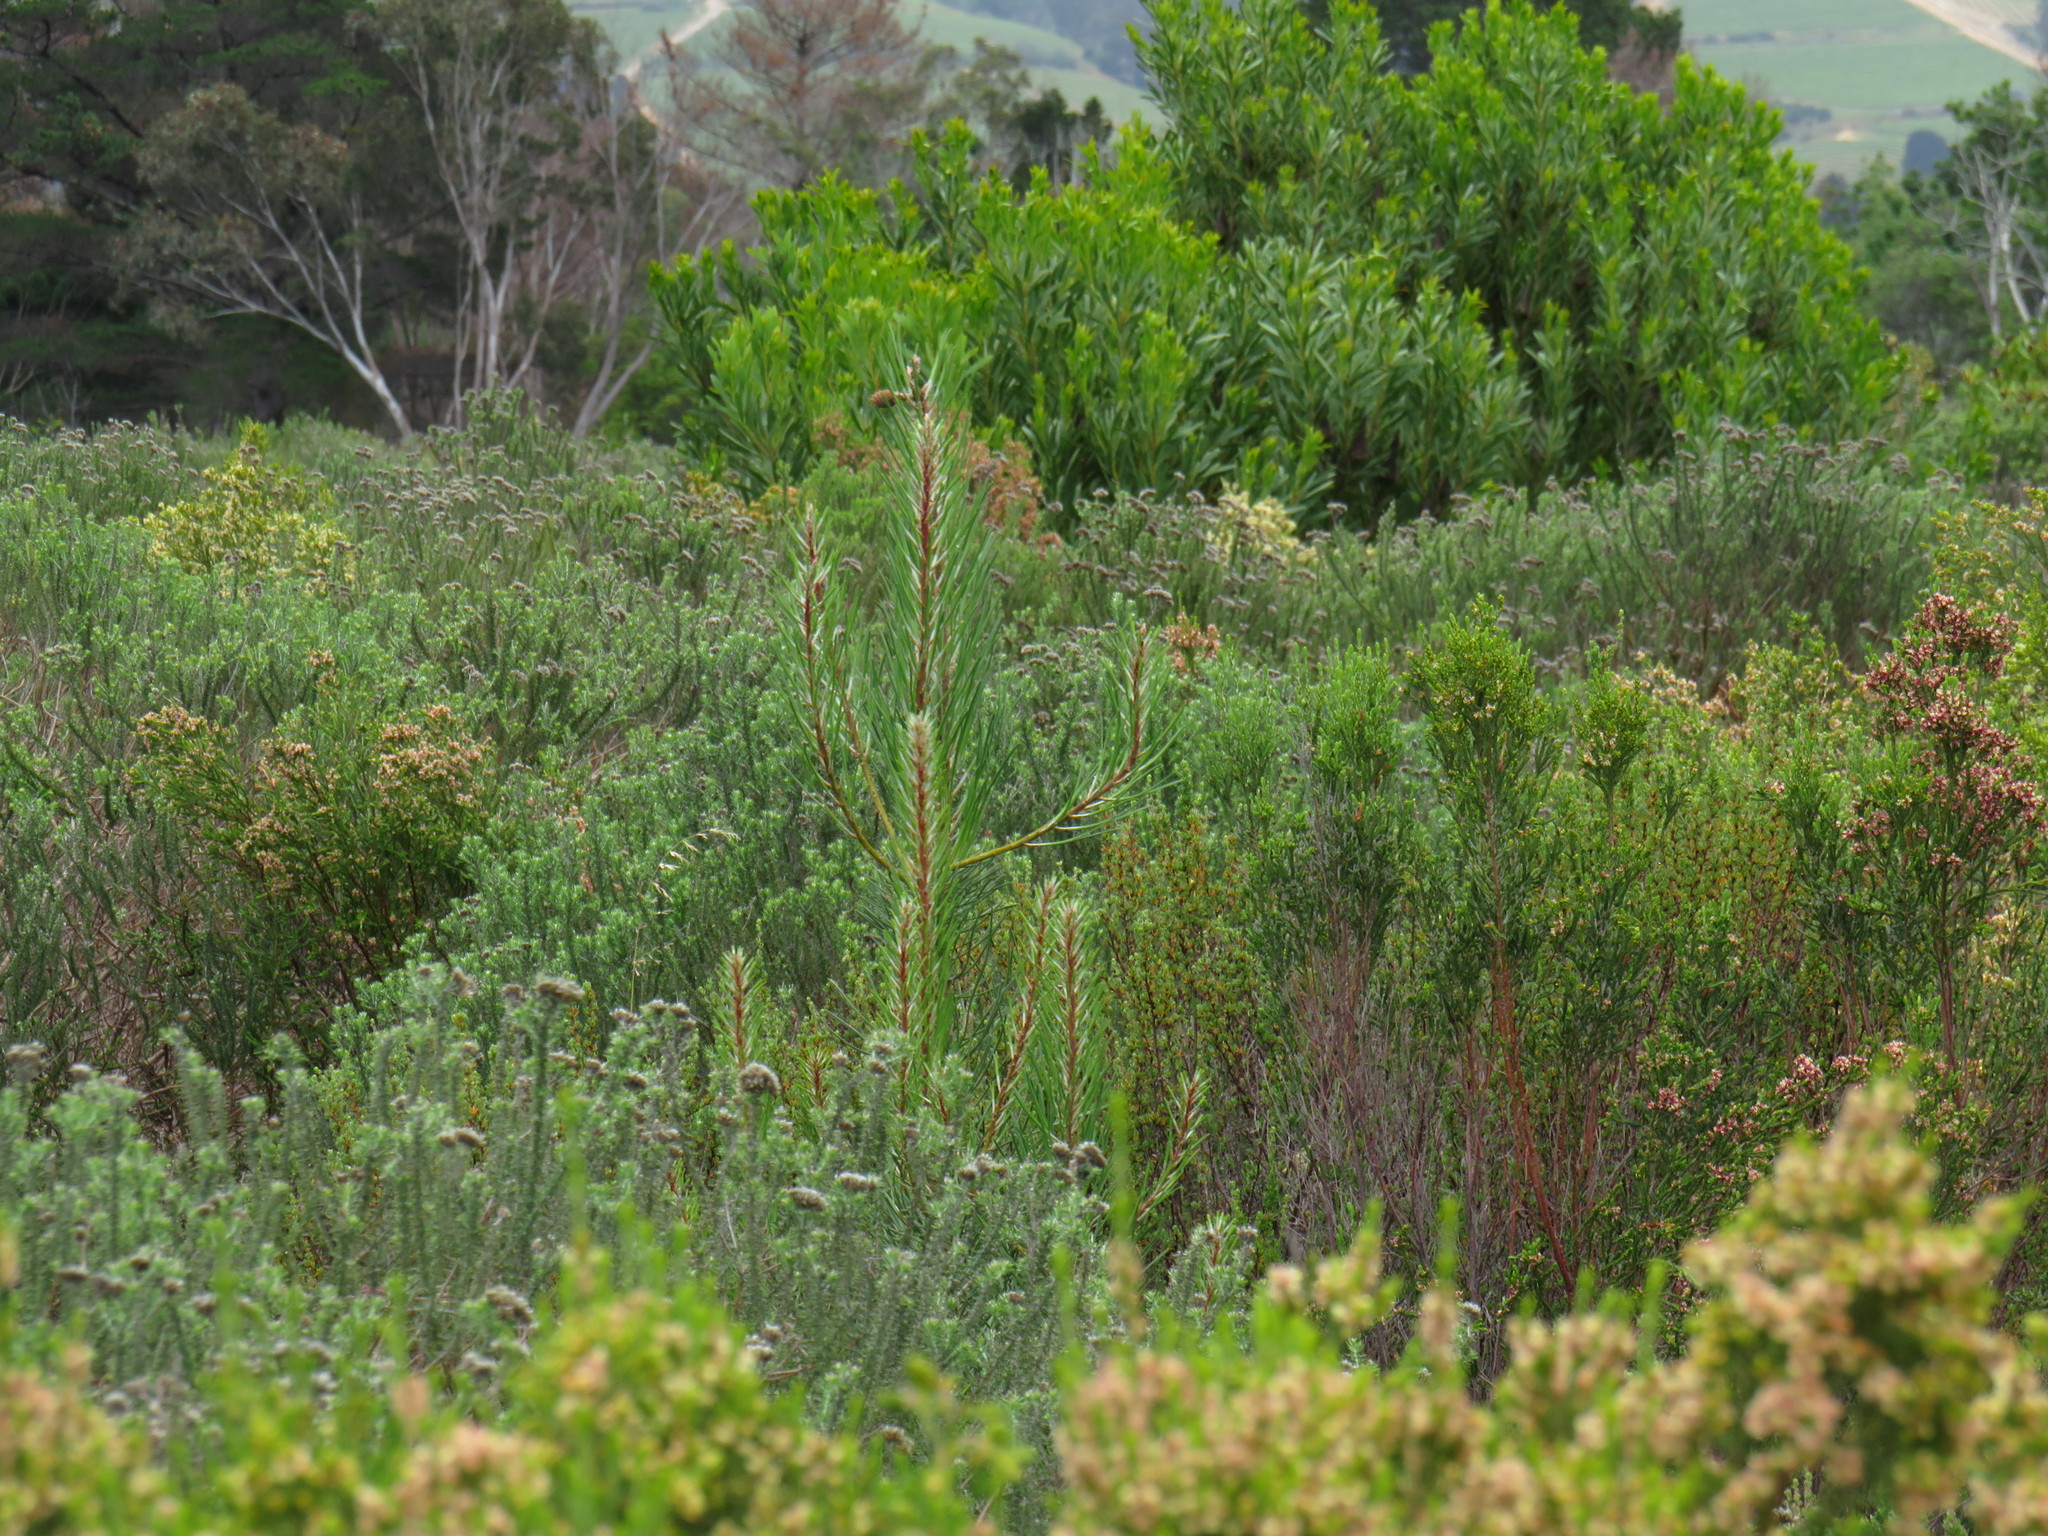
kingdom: Plantae
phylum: Tracheophyta
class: Pinopsida
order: Pinales
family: Pinaceae
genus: Pinus
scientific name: Pinus pinaster
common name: Maritime pine
